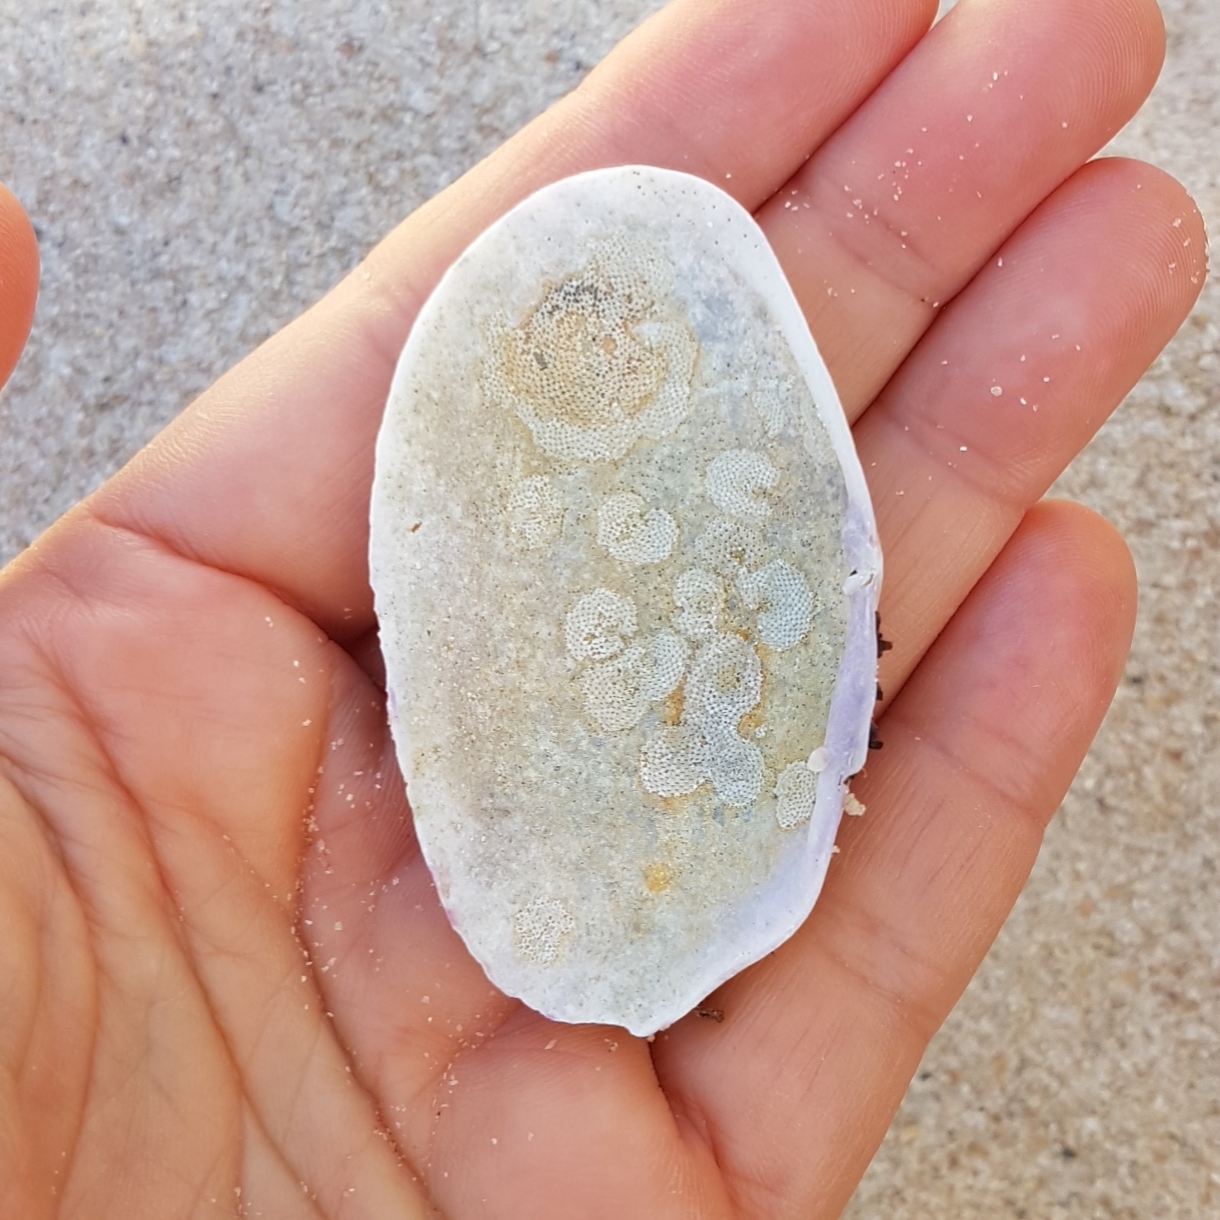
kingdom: Animalia
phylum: Mollusca
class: Bivalvia
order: Cardiida
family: Psammobiidae
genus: Gari
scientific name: Gari depressa
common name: Large sunset shell
